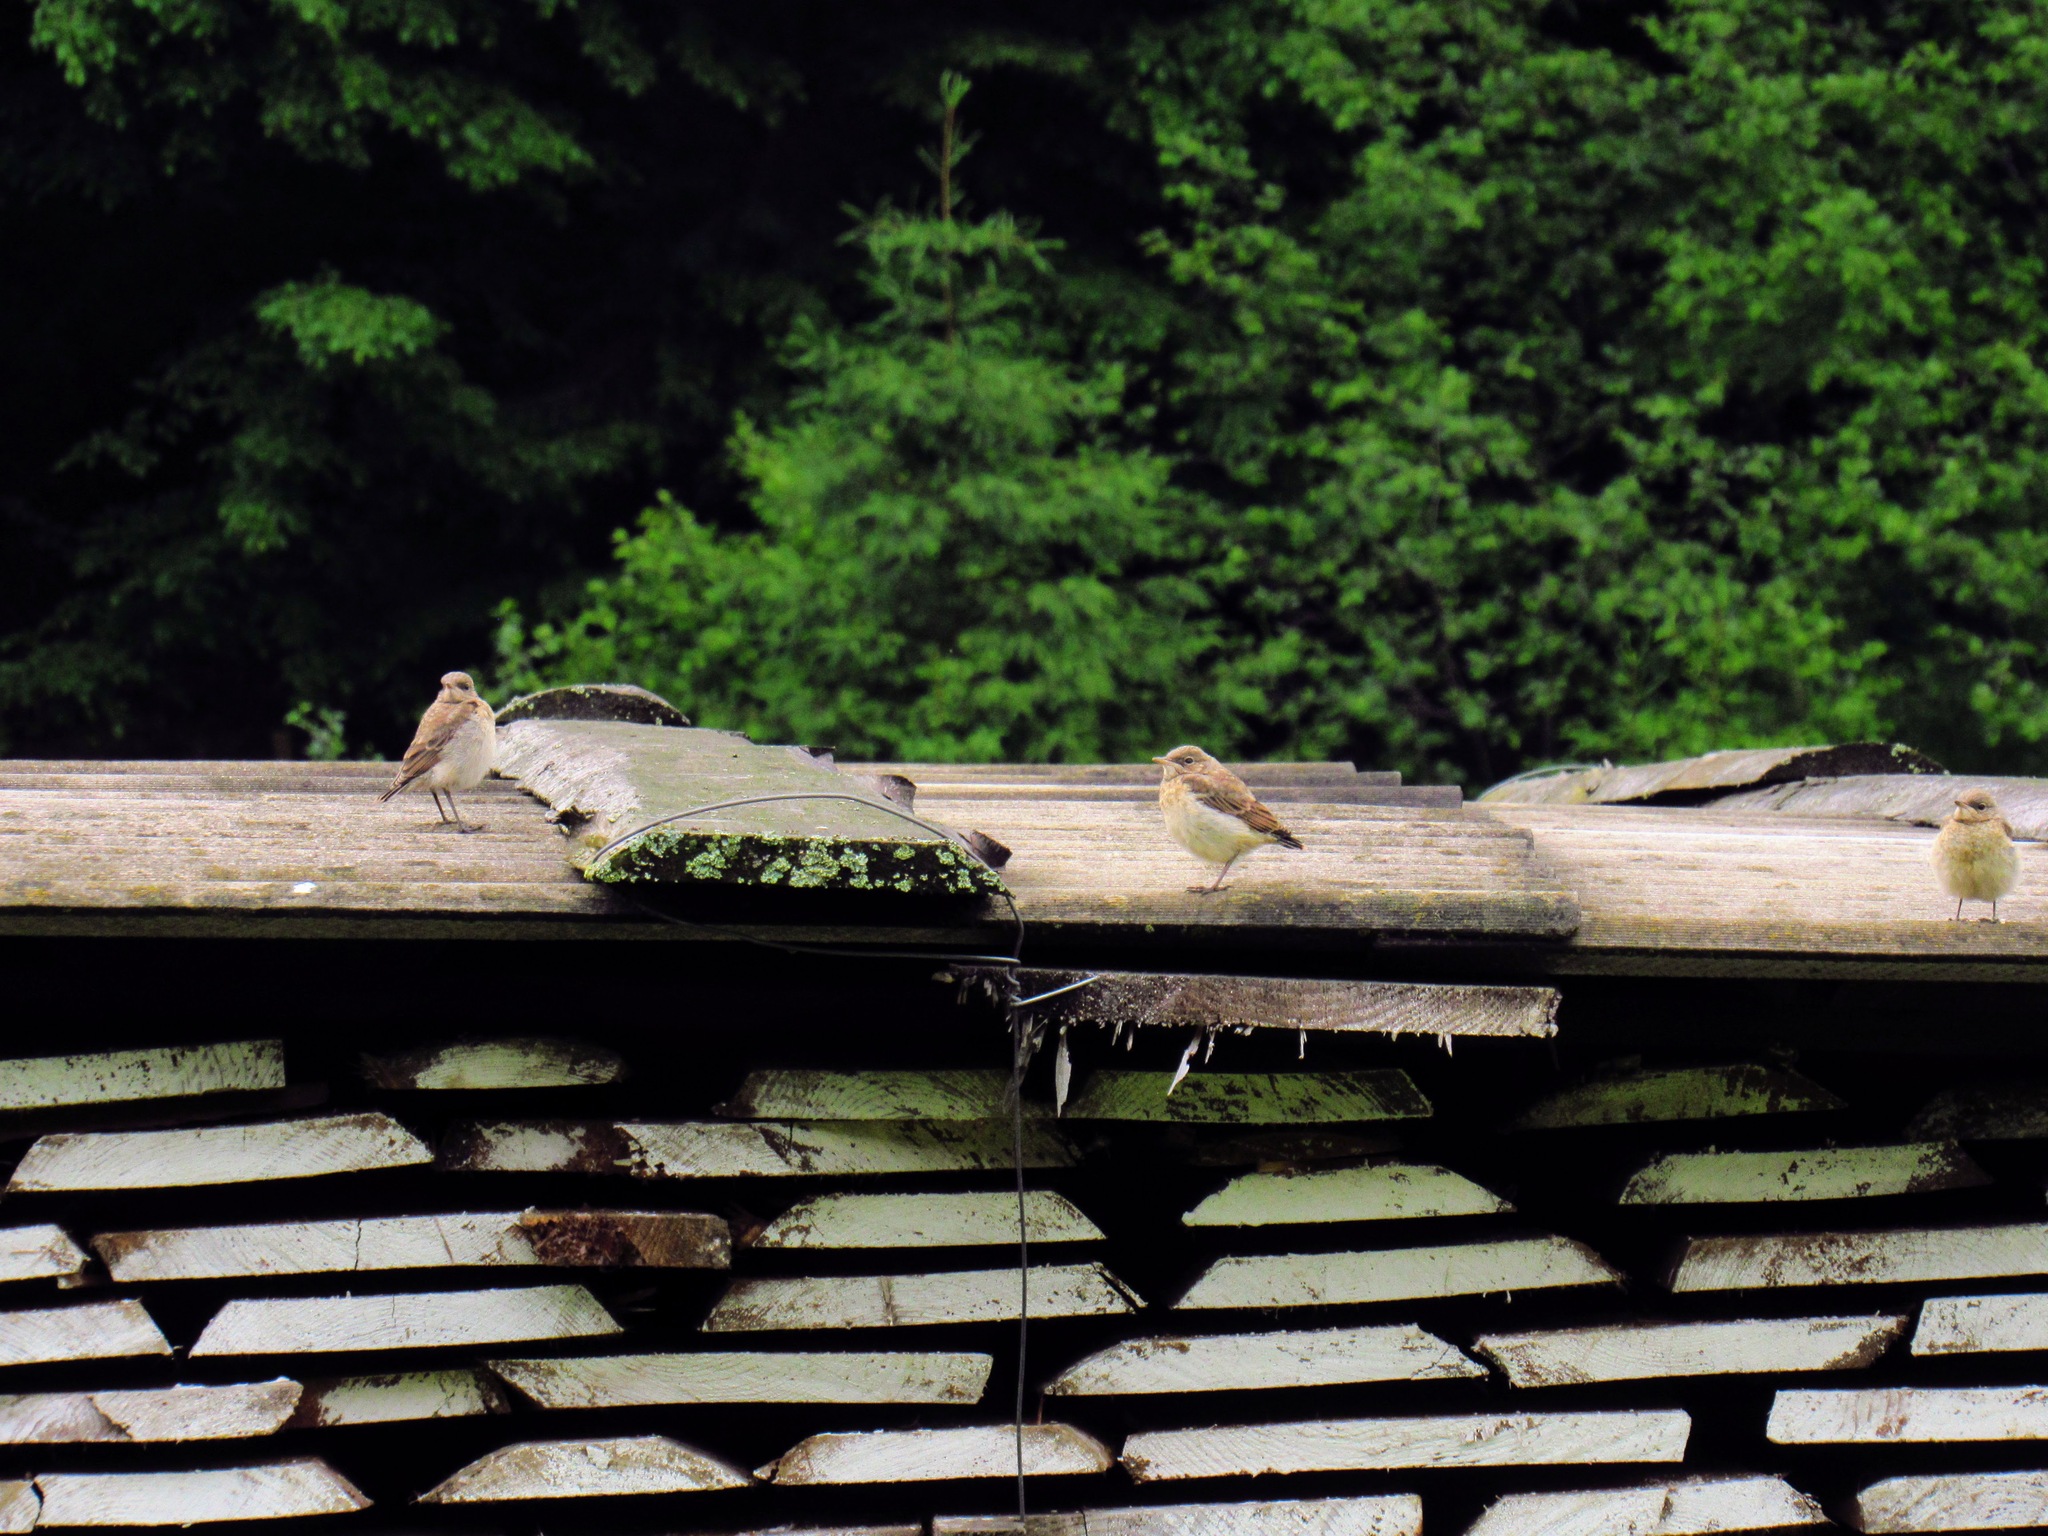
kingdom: Animalia
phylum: Chordata
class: Aves
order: Passeriformes
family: Muscicapidae
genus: Oenanthe
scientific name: Oenanthe oenanthe
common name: Northern wheatear
